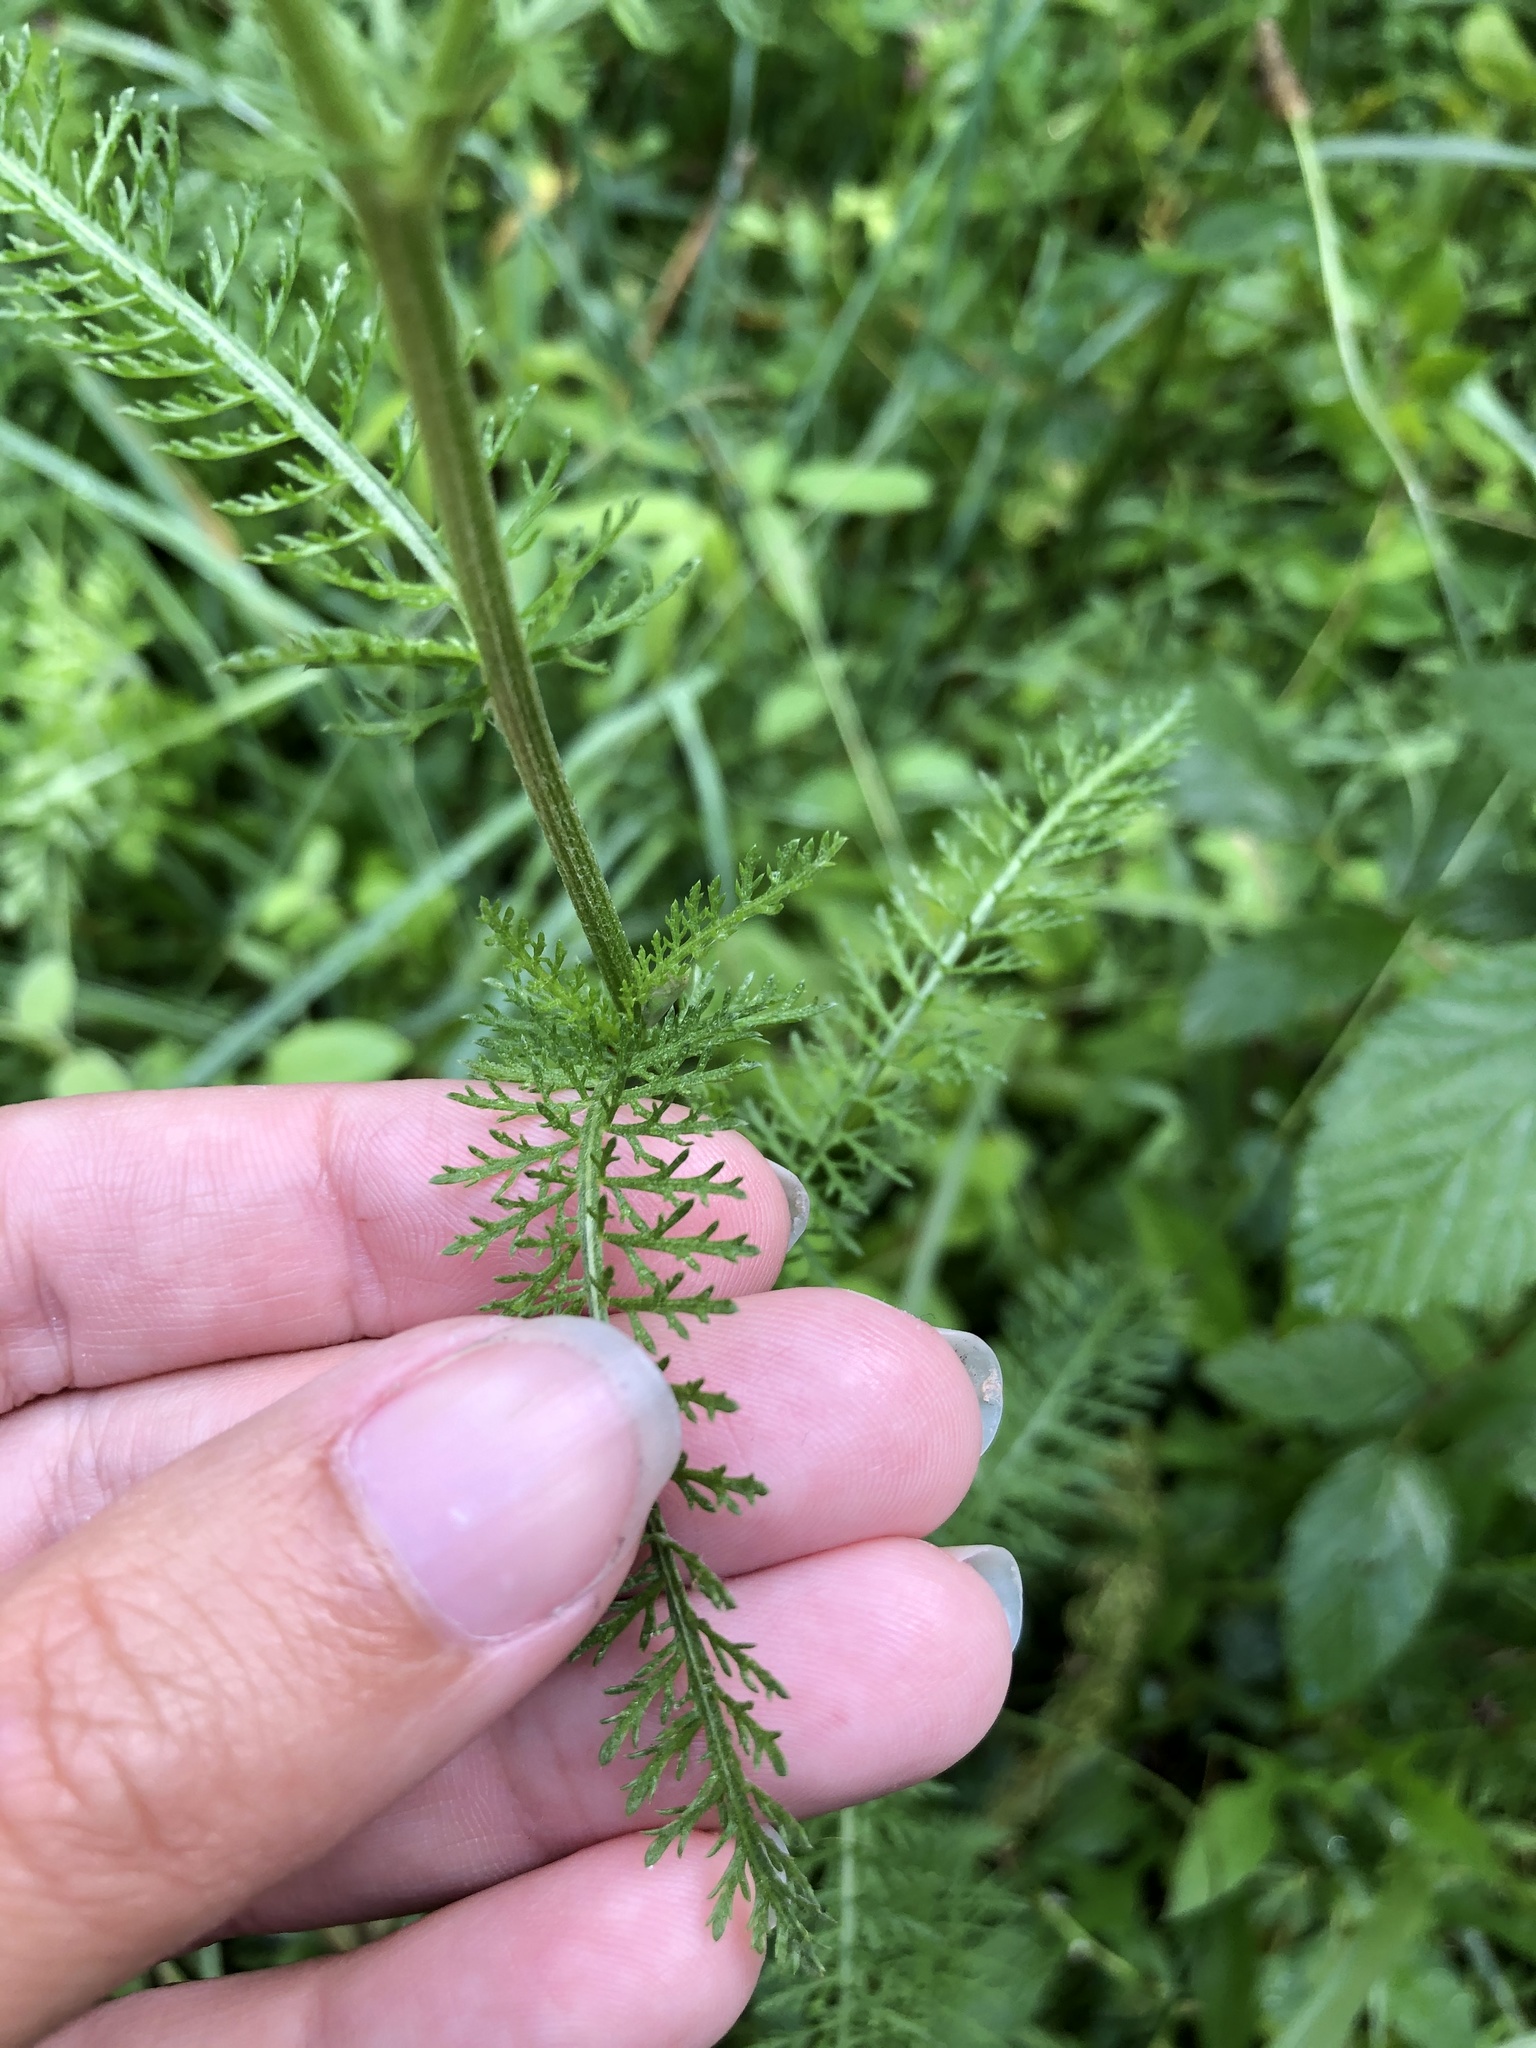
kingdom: Plantae
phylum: Tracheophyta
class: Magnoliopsida
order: Asterales
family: Asteraceae
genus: Achillea
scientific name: Achillea millefolium
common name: Yarrow
